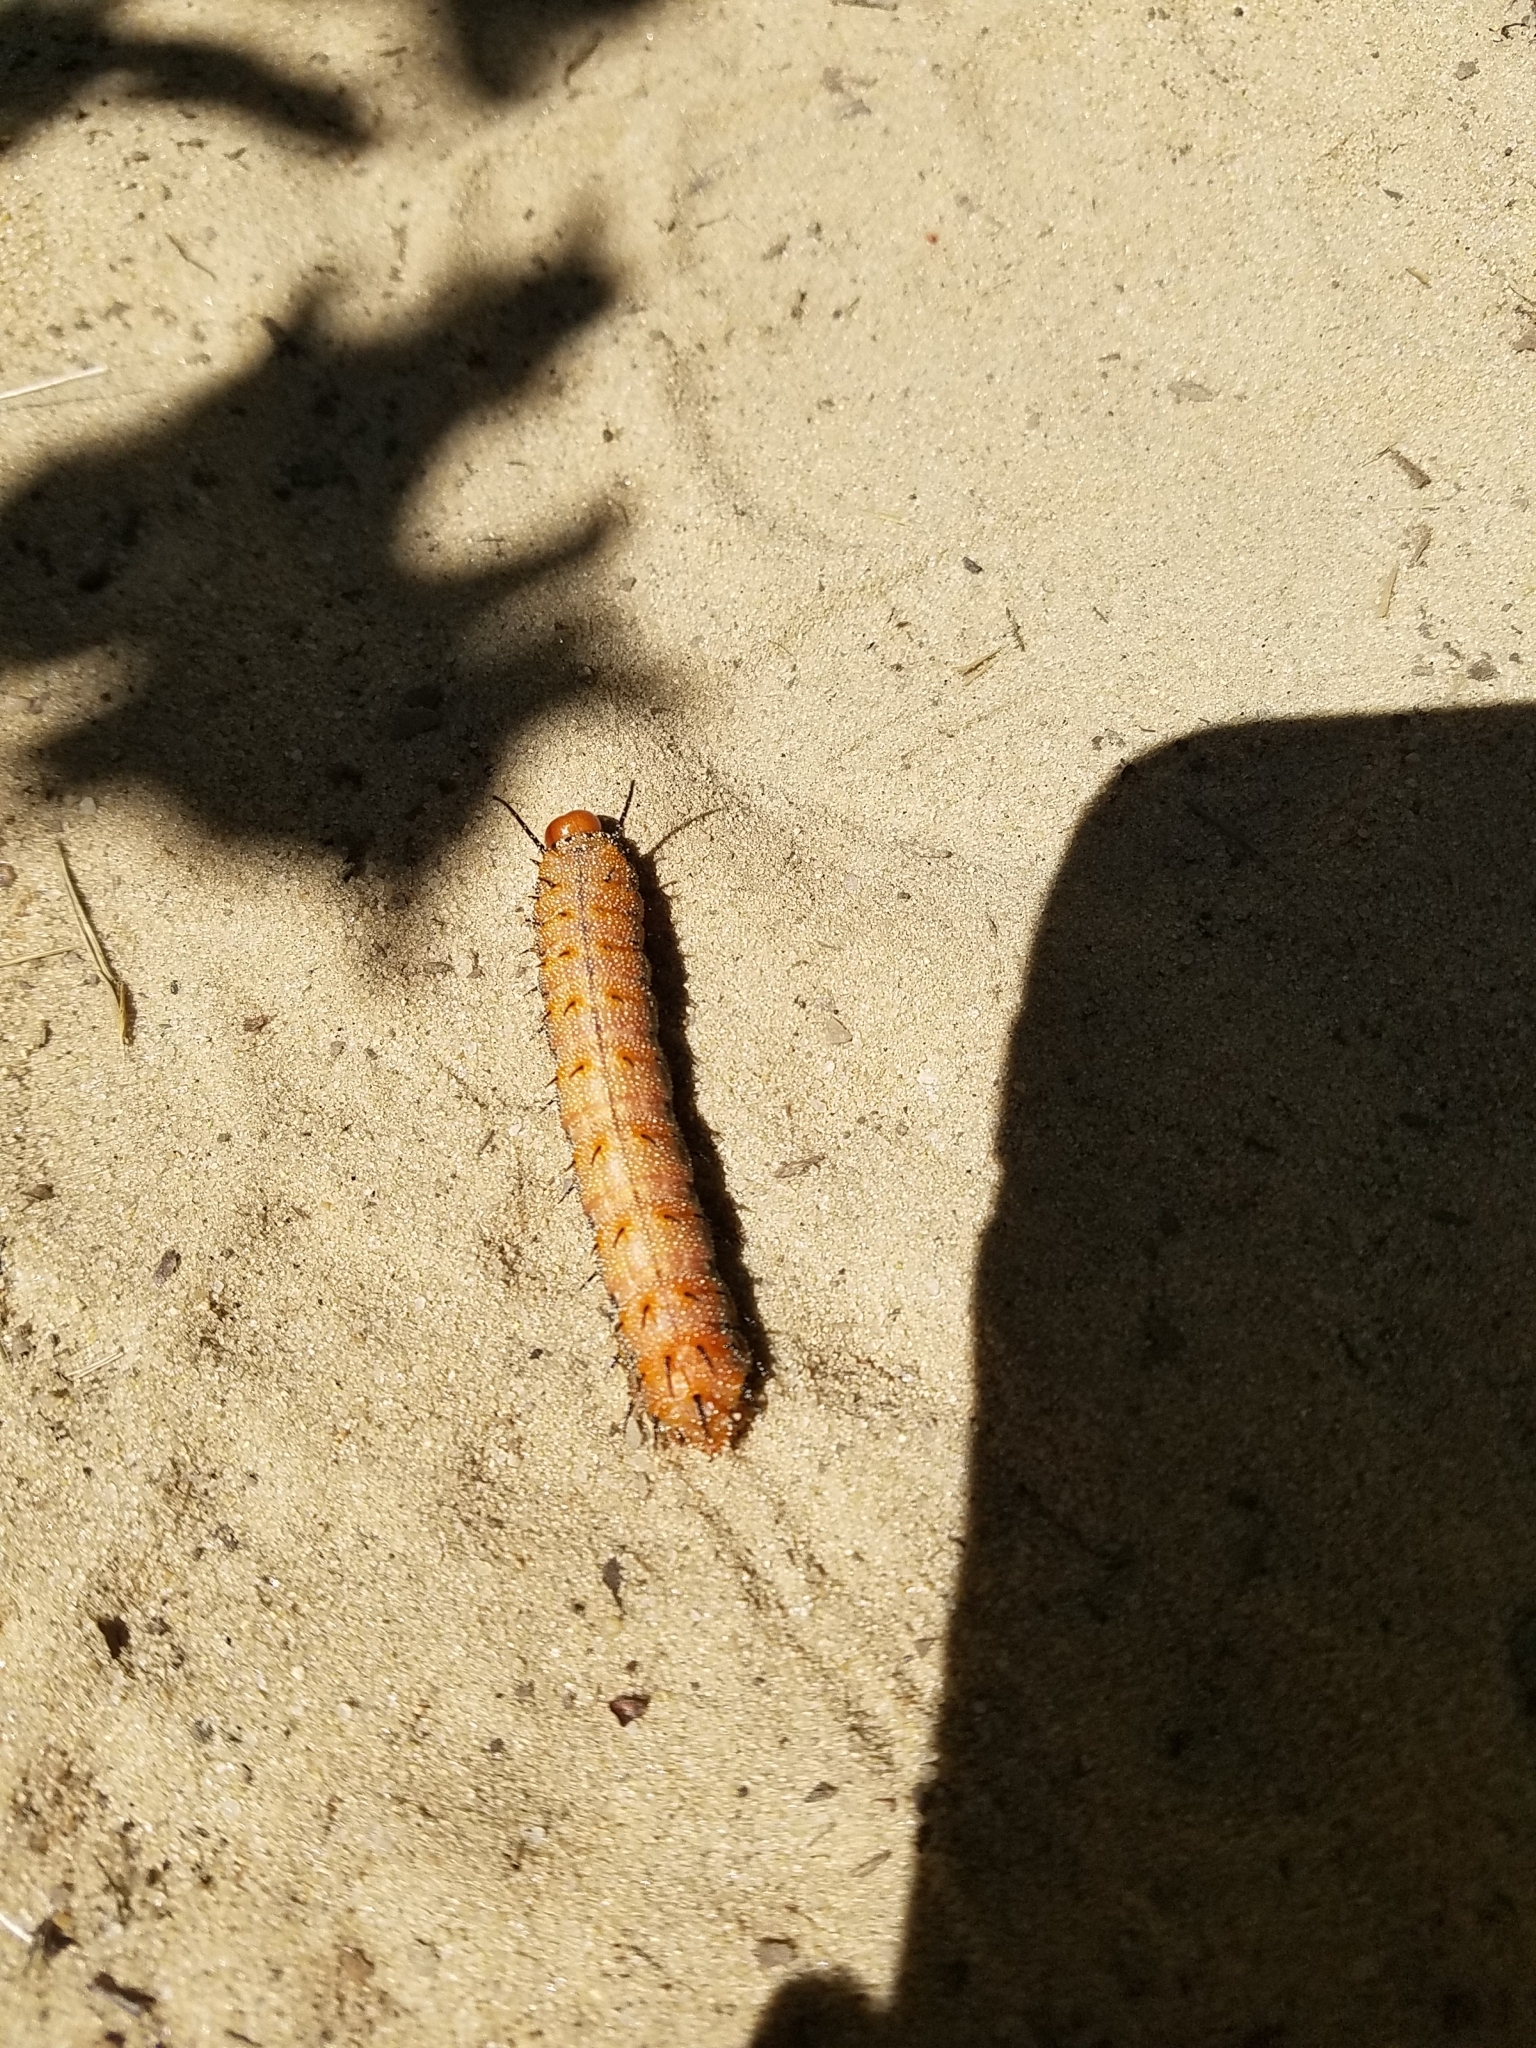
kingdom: Animalia
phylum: Arthropoda
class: Insecta
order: Lepidoptera
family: Saturniidae
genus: Anisota
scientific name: Anisota stigma
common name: Spiny oakworm moth
